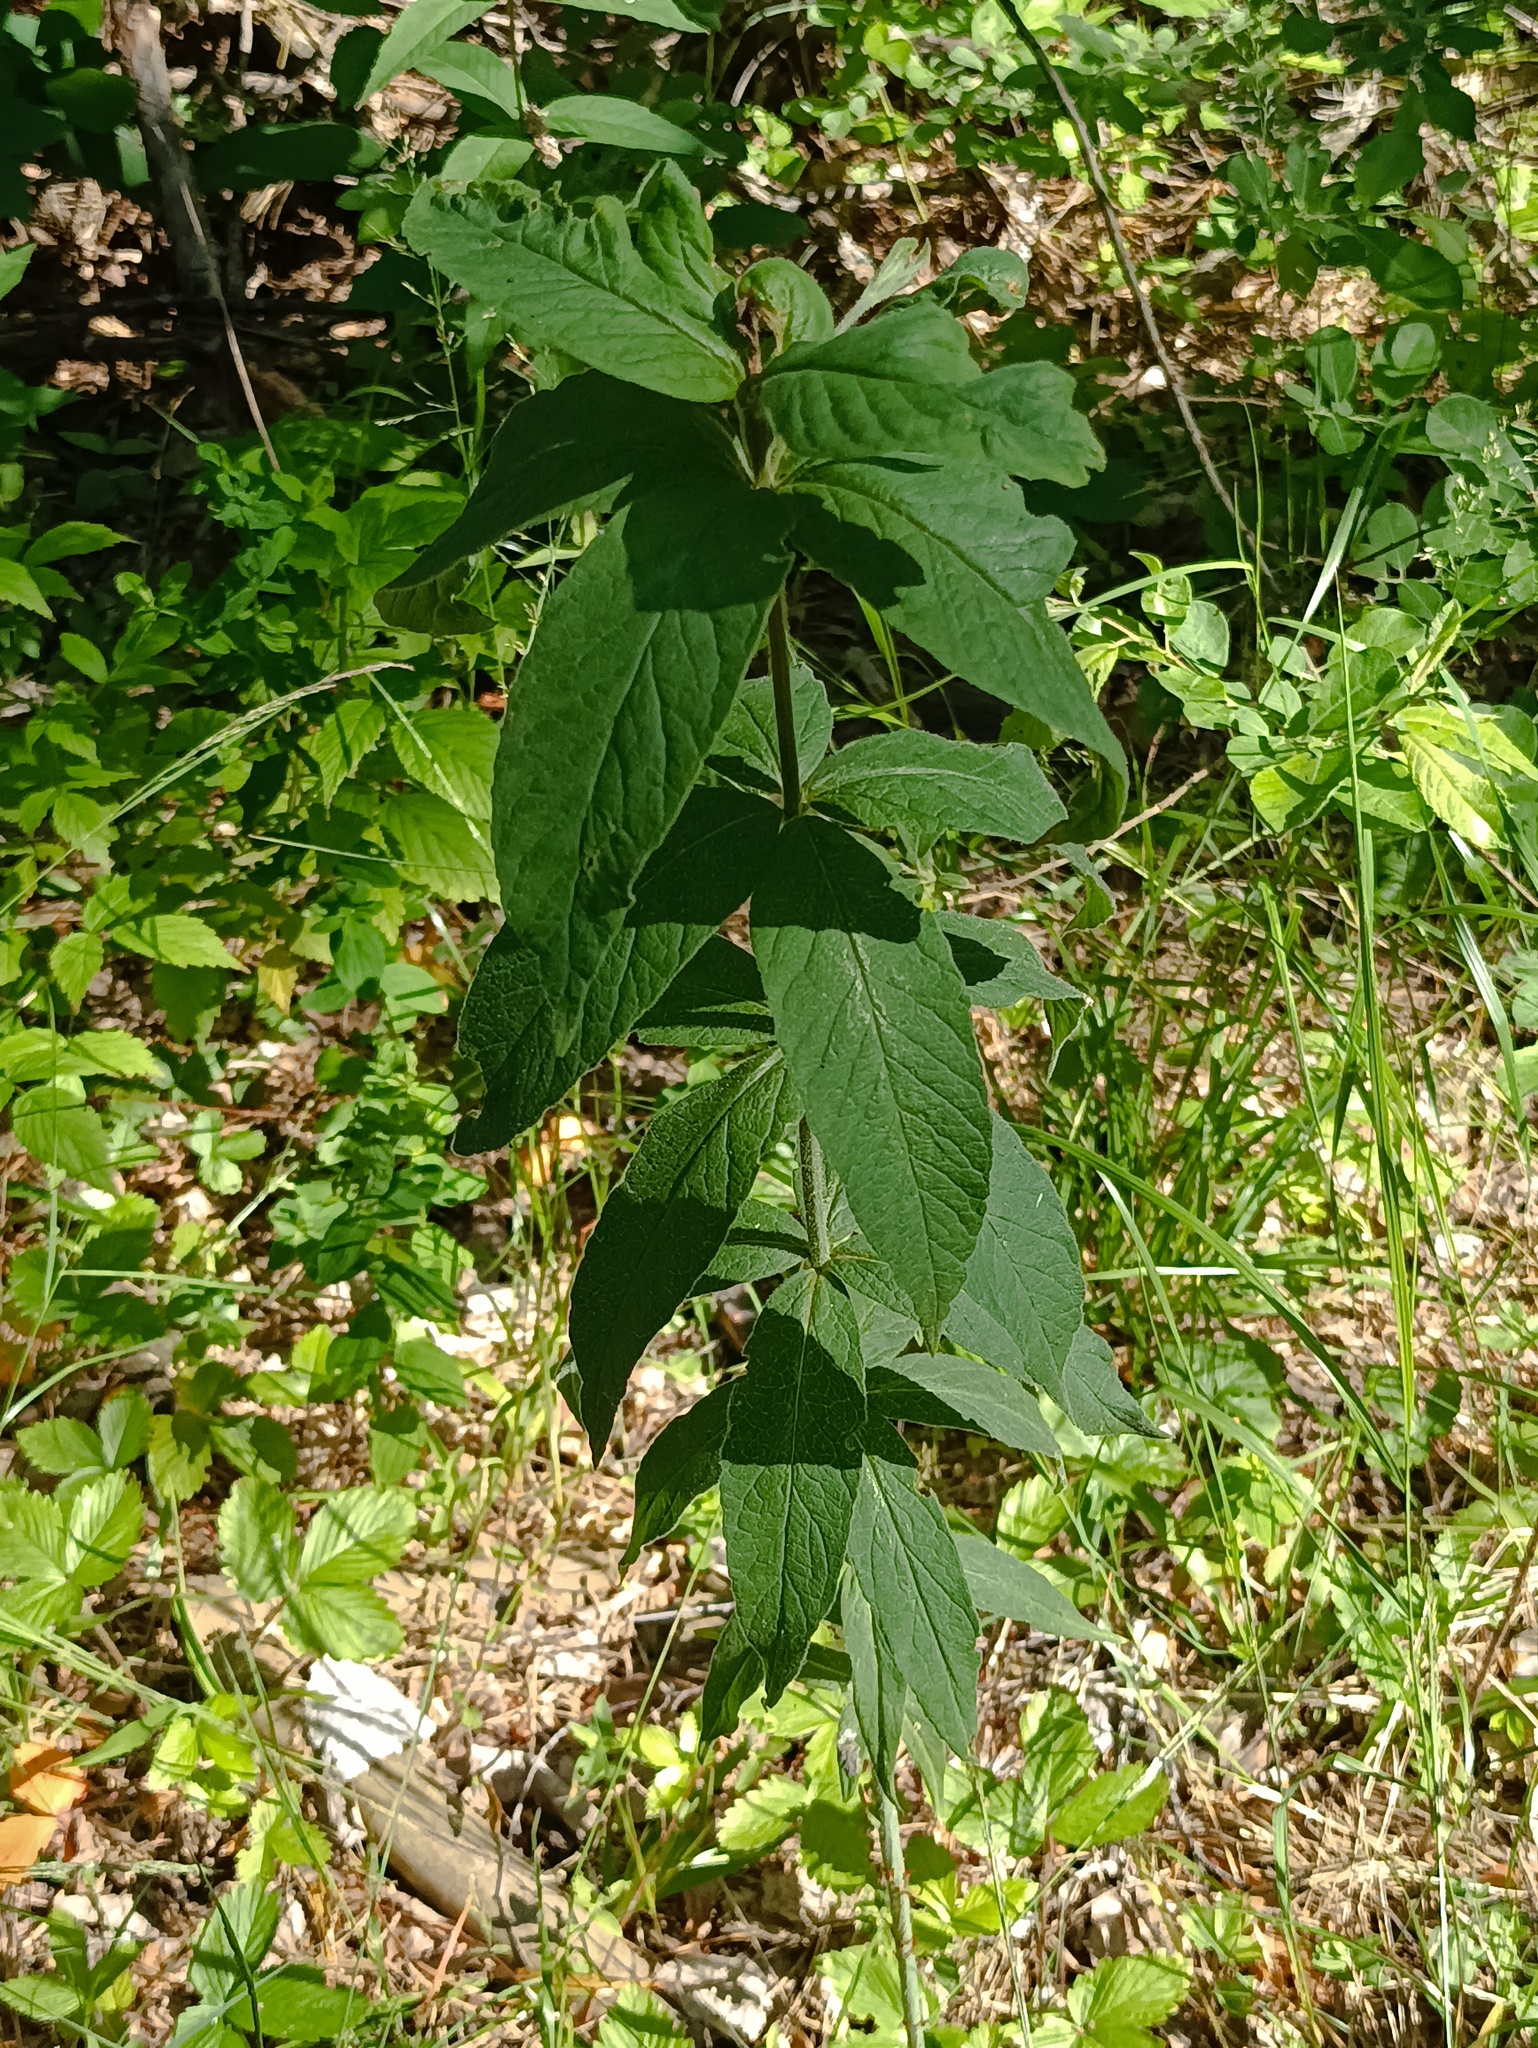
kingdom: Plantae
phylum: Tracheophyta
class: Magnoliopsida
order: Ericales
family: Primulaceae
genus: Lysimachia
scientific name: Lysimachia vulgaris
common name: Yellow loosestrife
